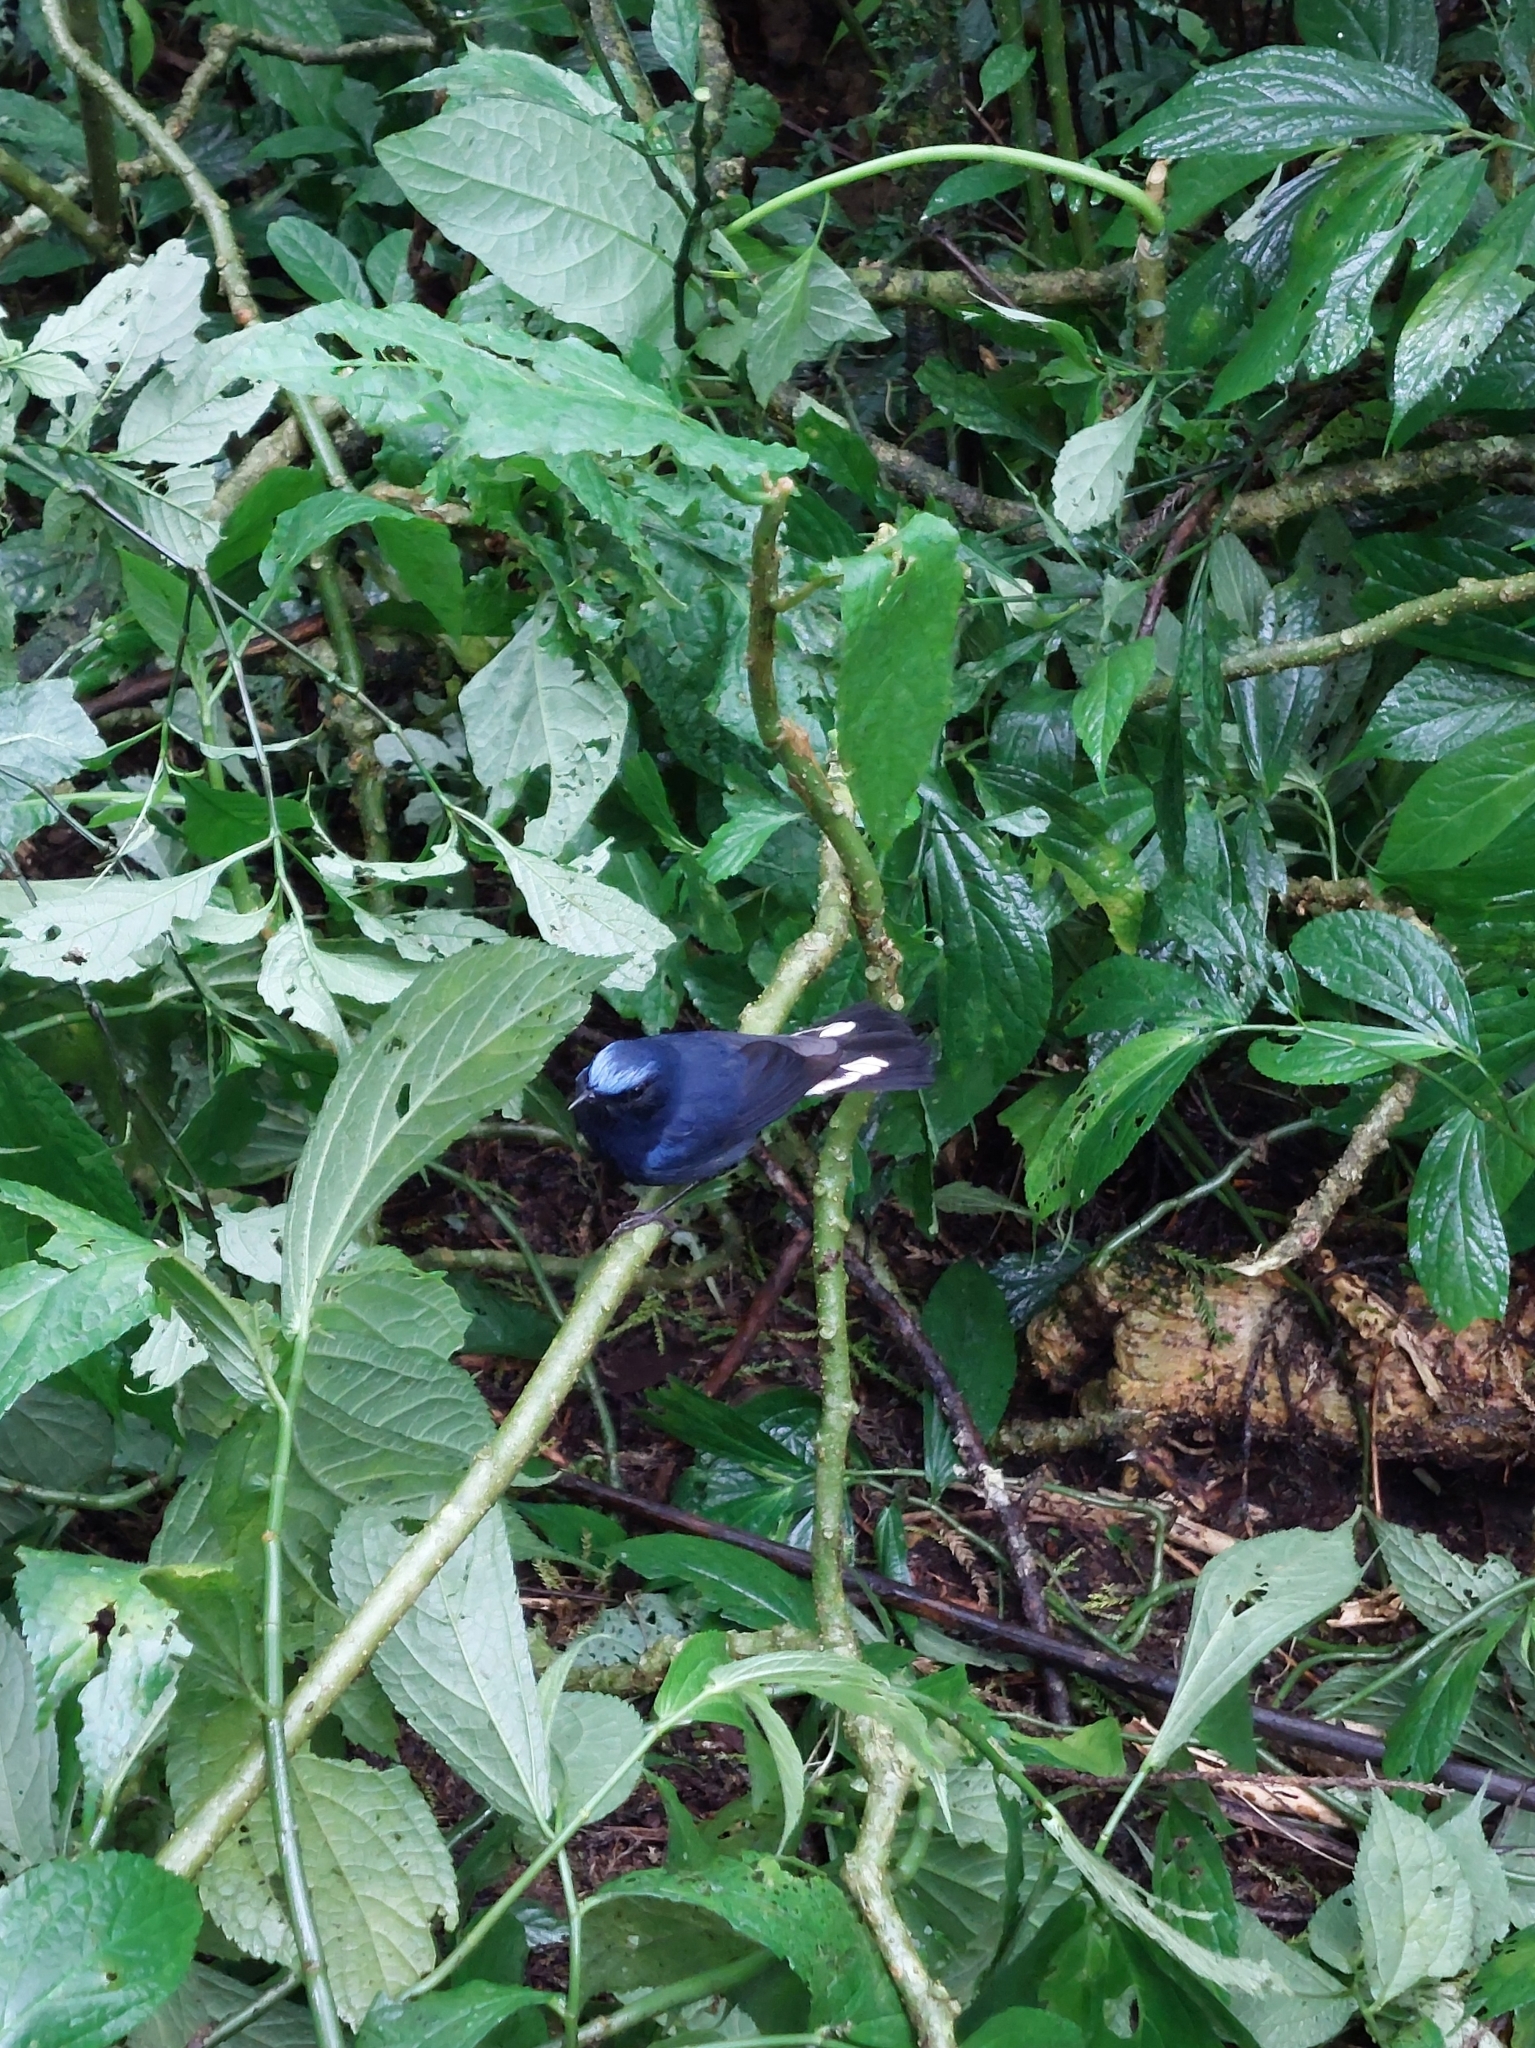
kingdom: Animalia
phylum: Chordata
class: Aves
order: Passeriformes
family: Muscicapidae
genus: Myiomela
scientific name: Myiomela leucura
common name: White-tailed robin
